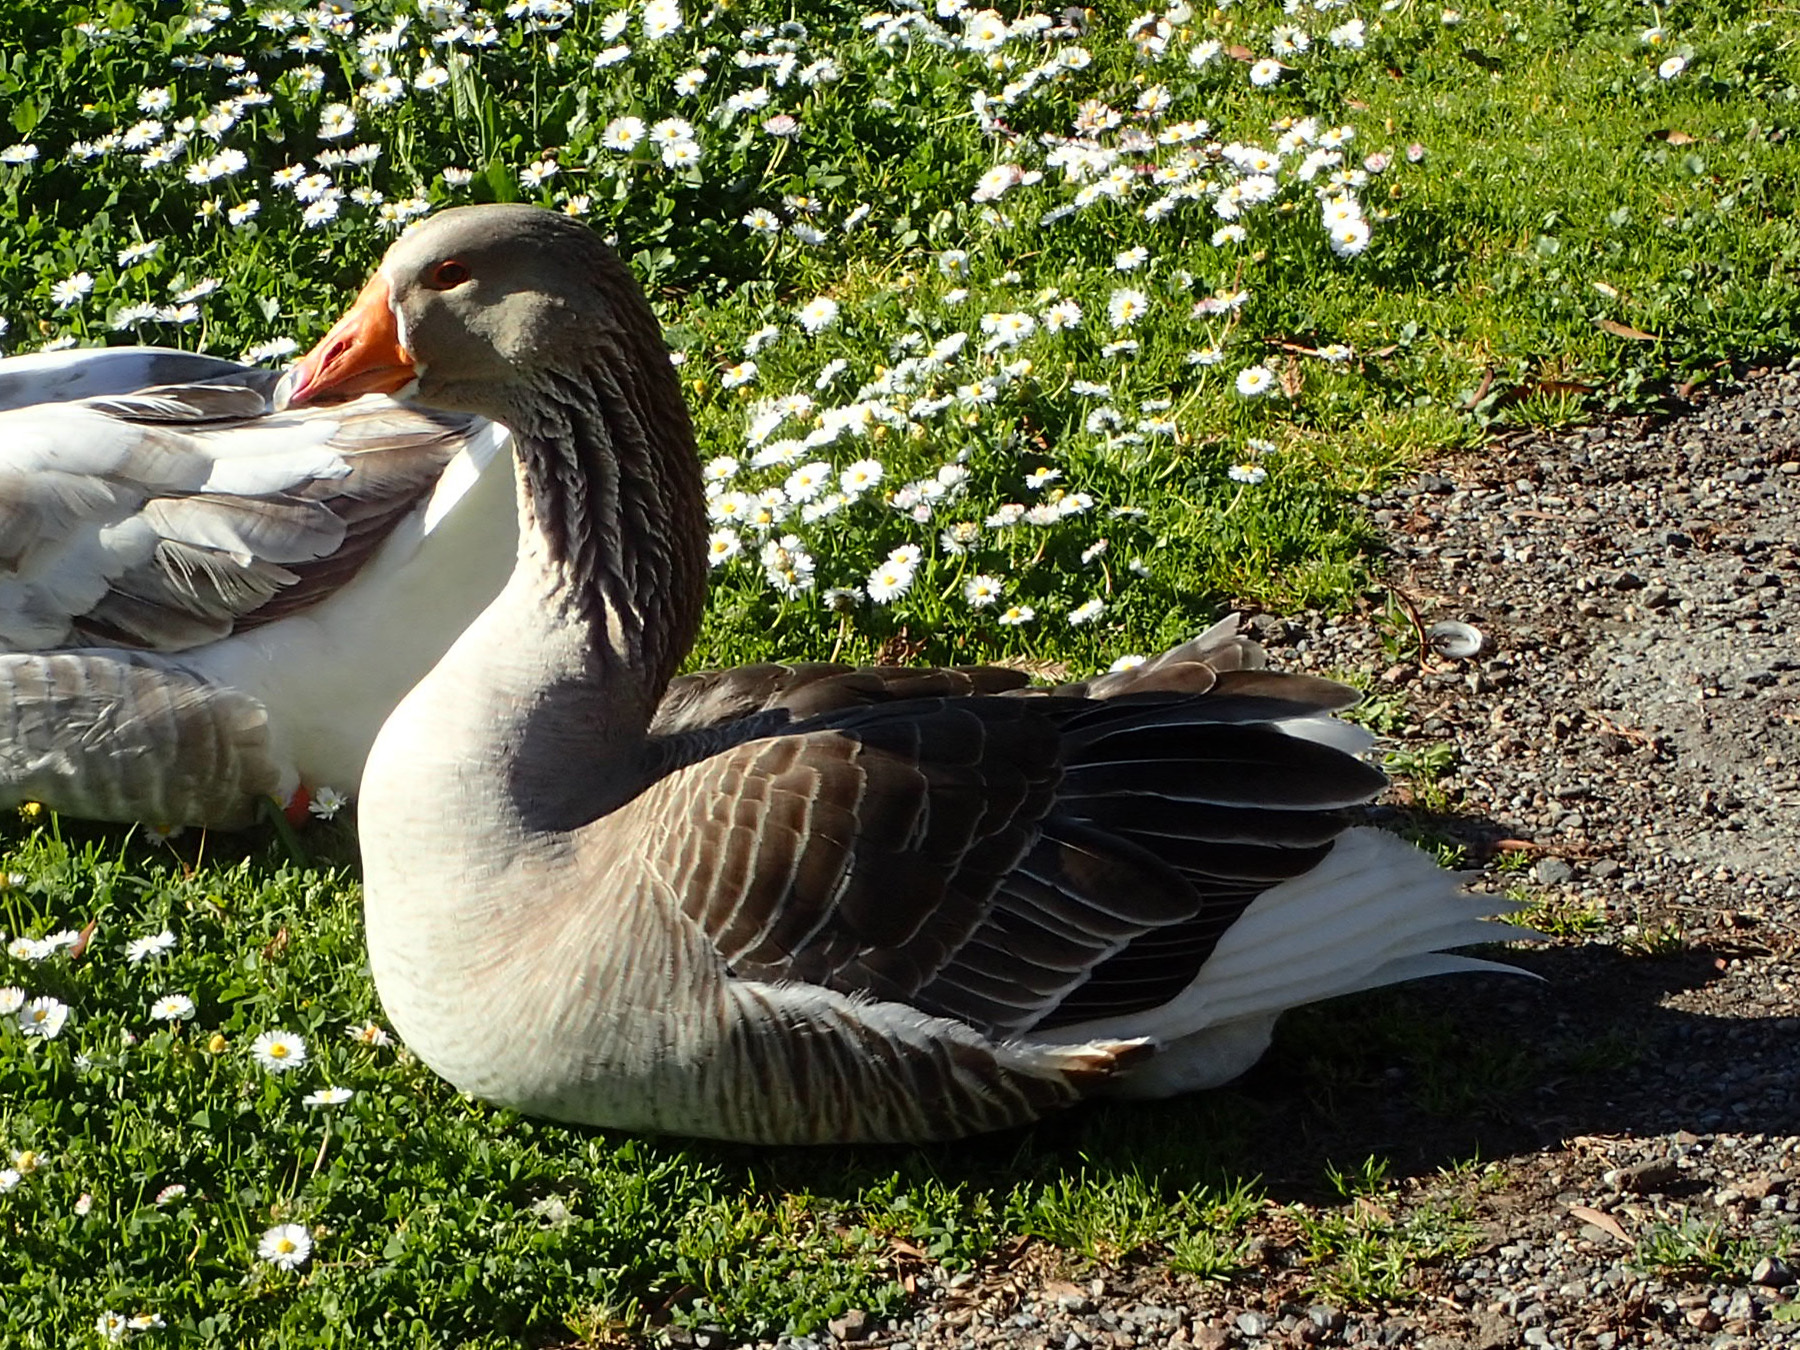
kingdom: Animalia
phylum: Chordata
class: Aves
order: Anseriformes
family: Anatidae
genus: Anser
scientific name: Anser
